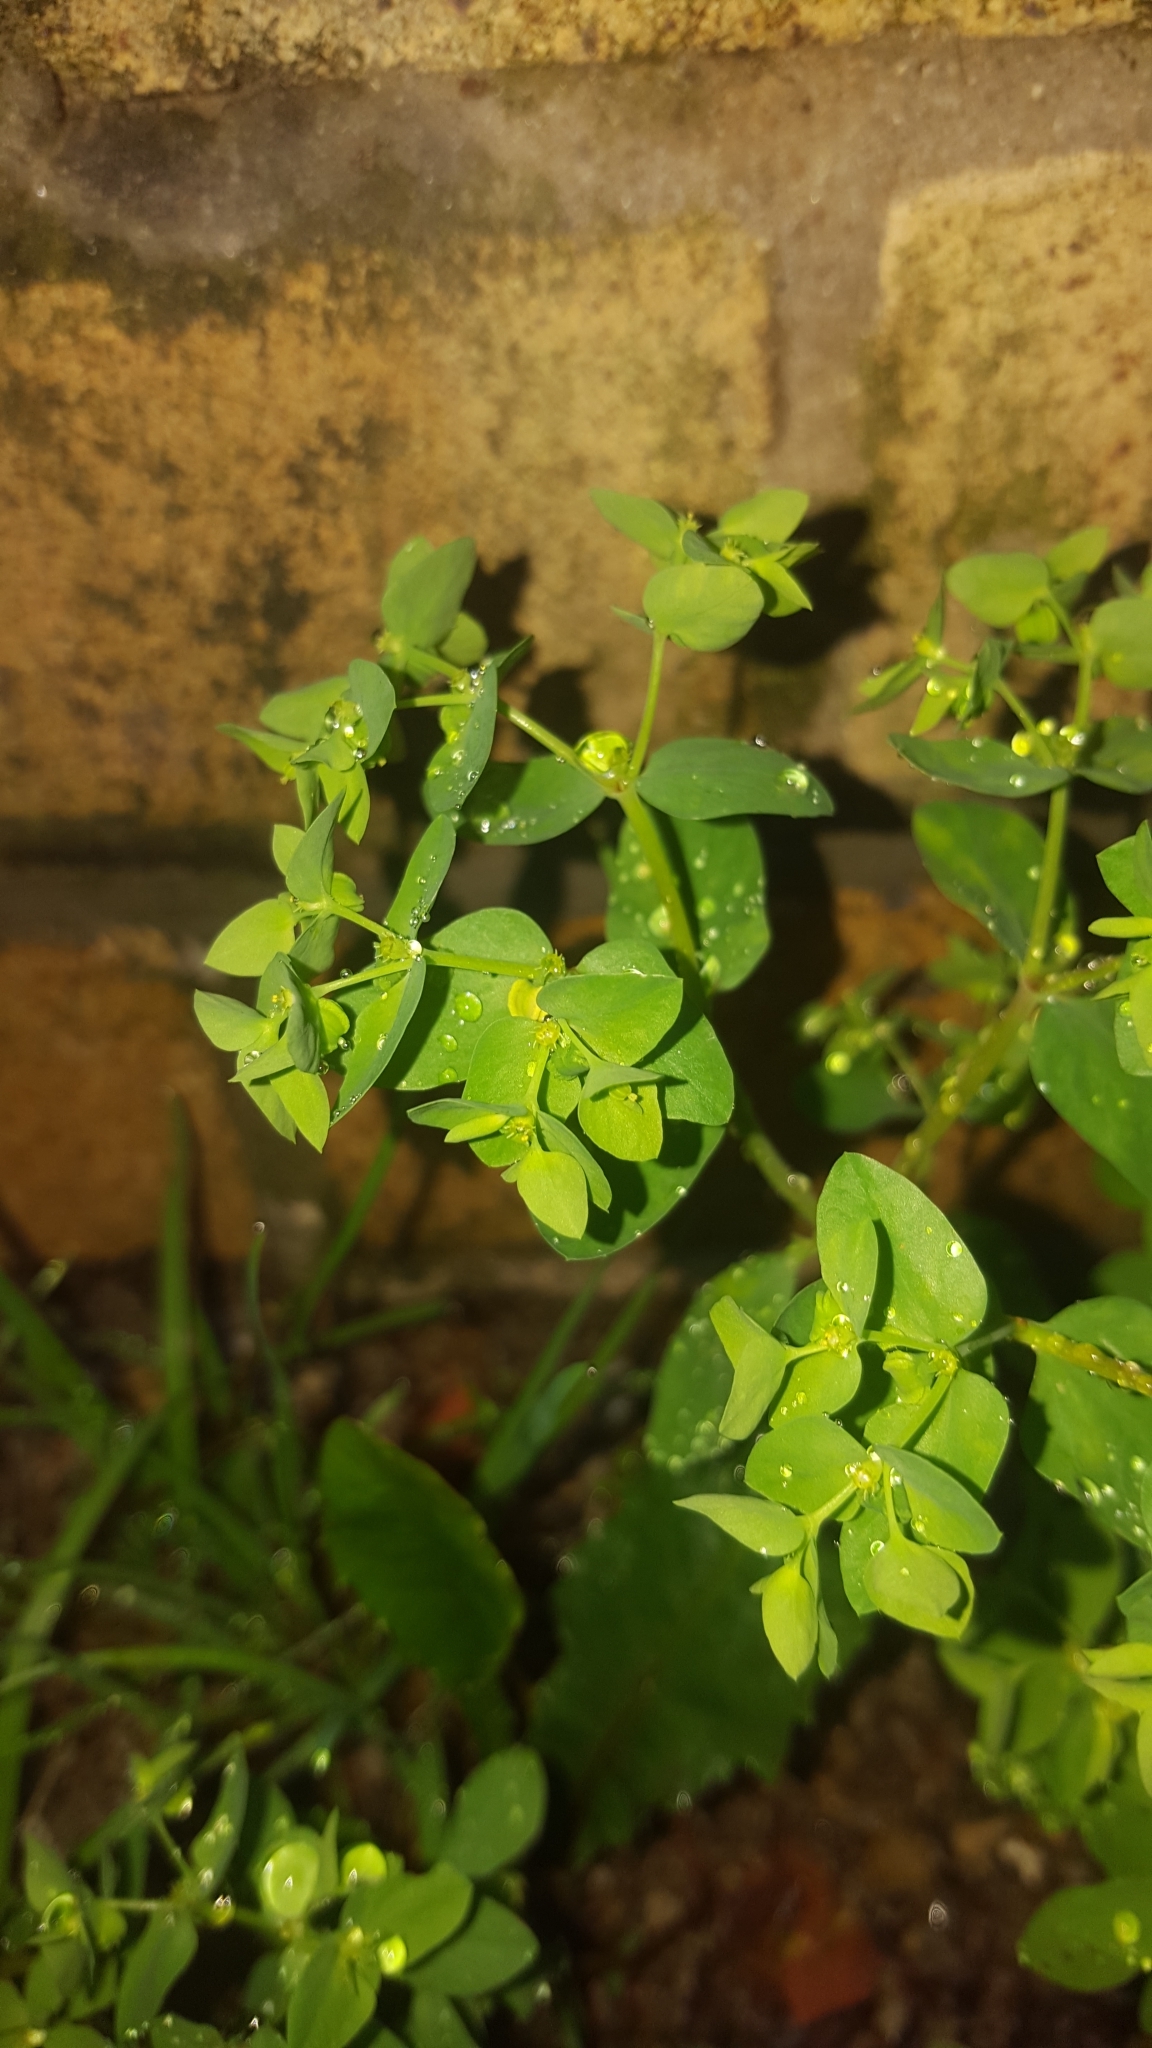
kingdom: Plantae
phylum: Tracheophyta
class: Magnoliopsida
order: Malpighiales
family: Euphorbiaceae
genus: Euphorbia
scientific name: Euphorbia peplus
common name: Petty spurge
